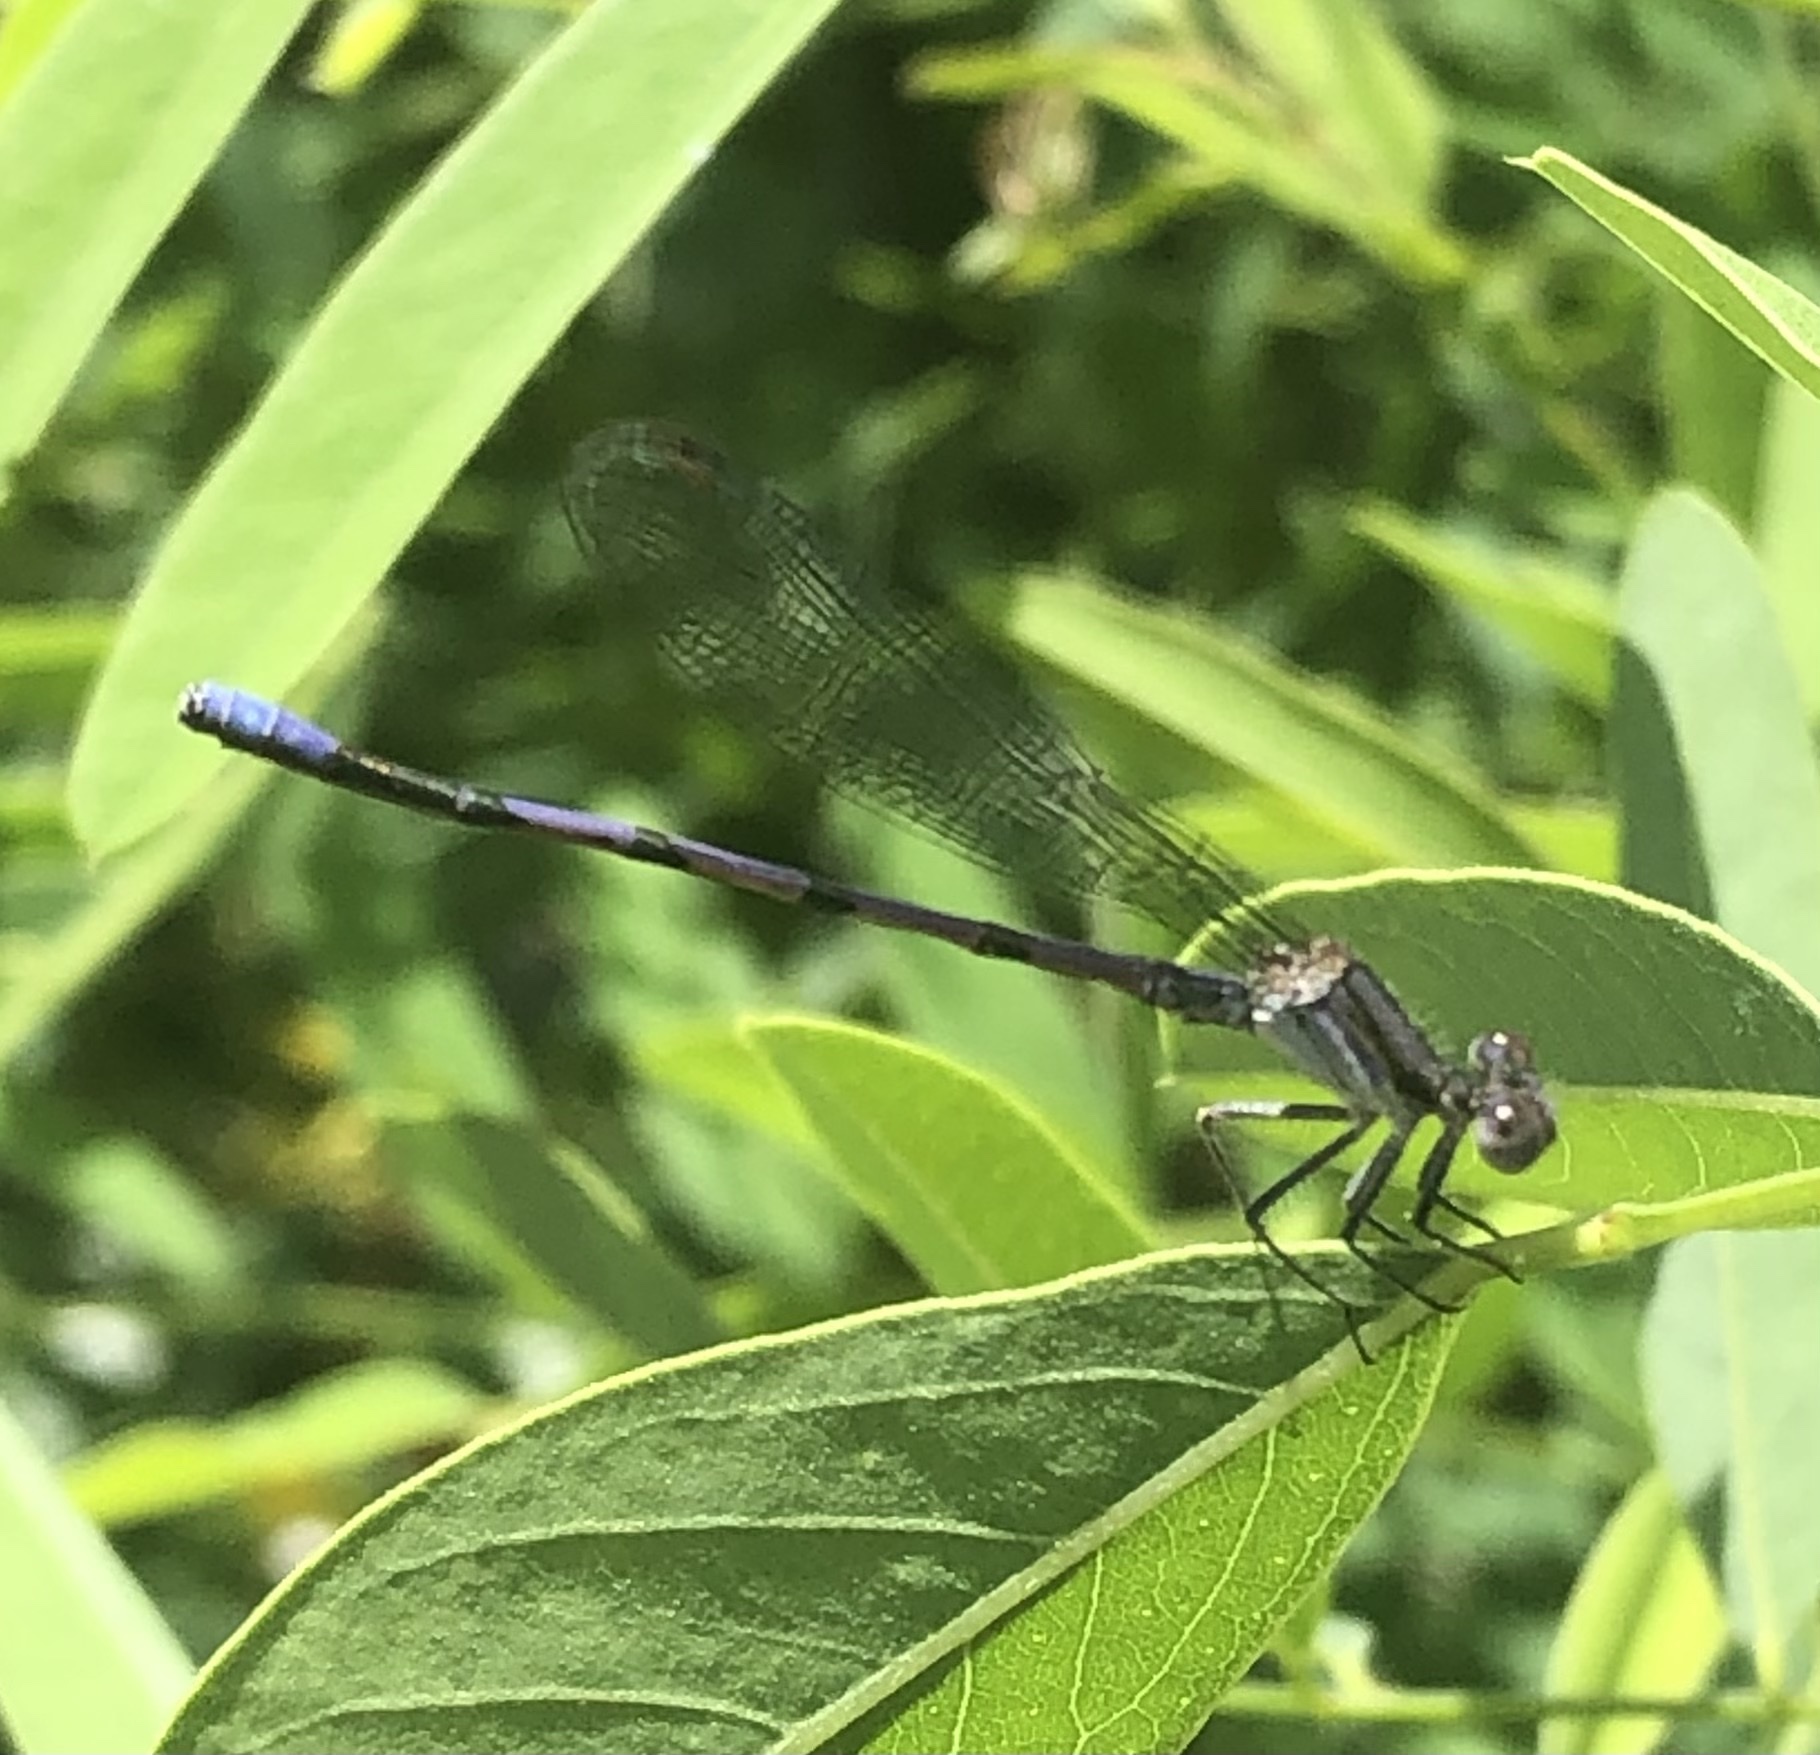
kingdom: Animalia
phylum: Arthropoda
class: Insecta
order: Odonata
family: Coenagrionidae
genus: Argia
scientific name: Argia fumipennis
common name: Variable dancer
